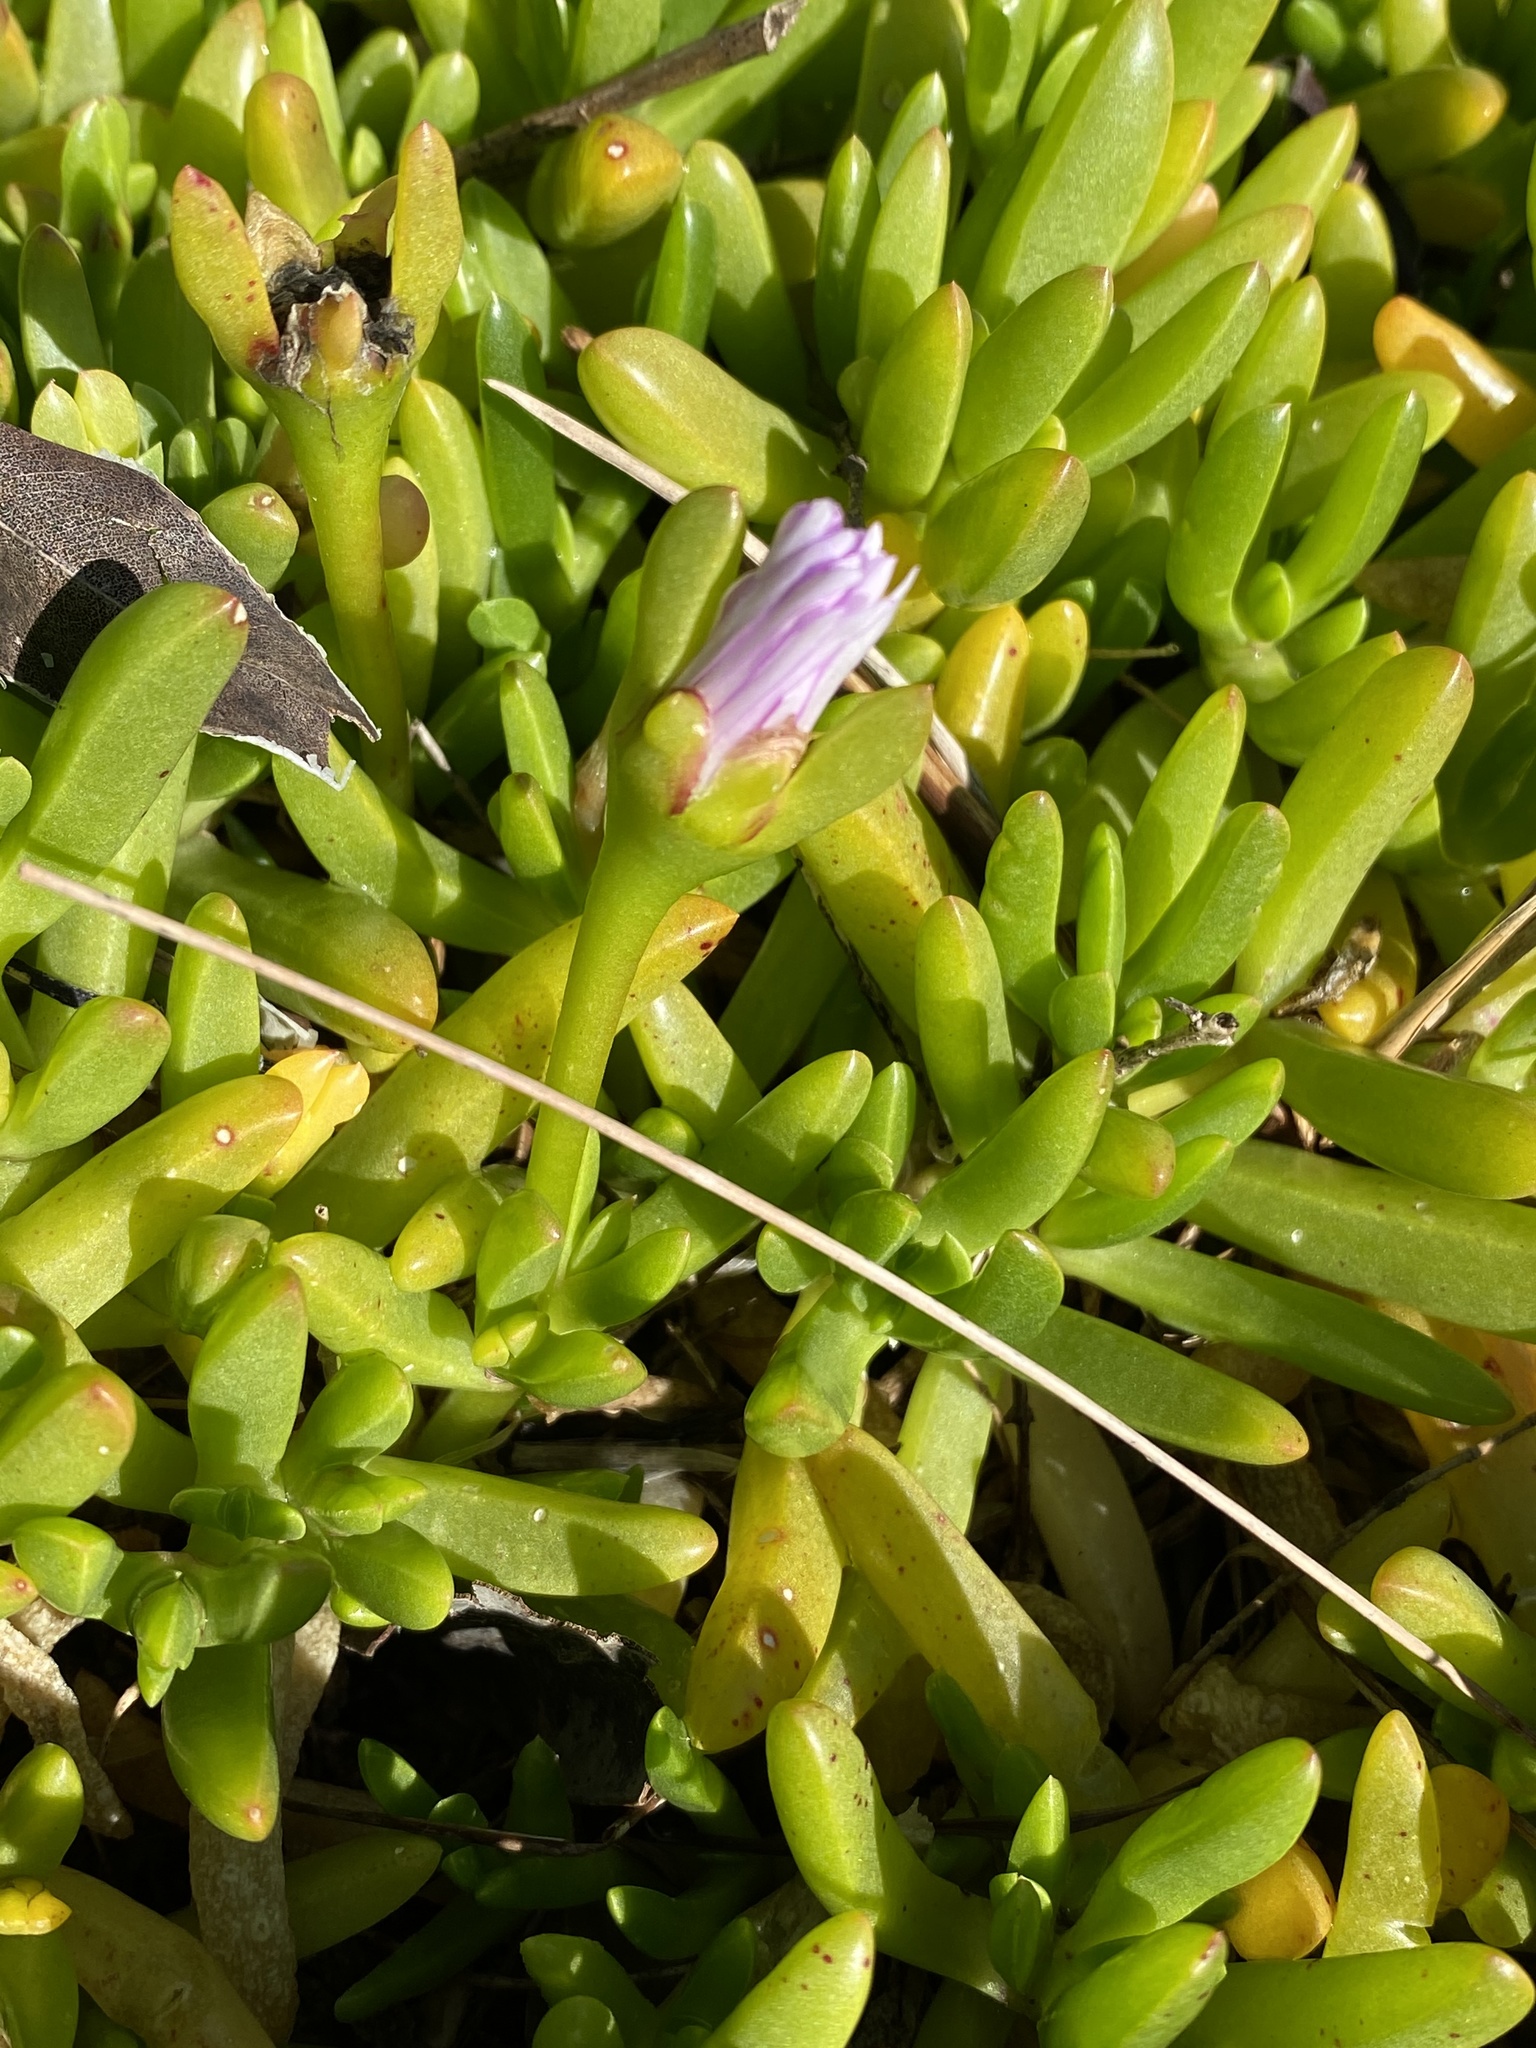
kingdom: Plantae
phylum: Tracheophyta
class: Magnoliopsida
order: Caryophyllales
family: Aizoaceae
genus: Disphyma
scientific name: Disphyma crassifolium
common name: Purple dewplant
